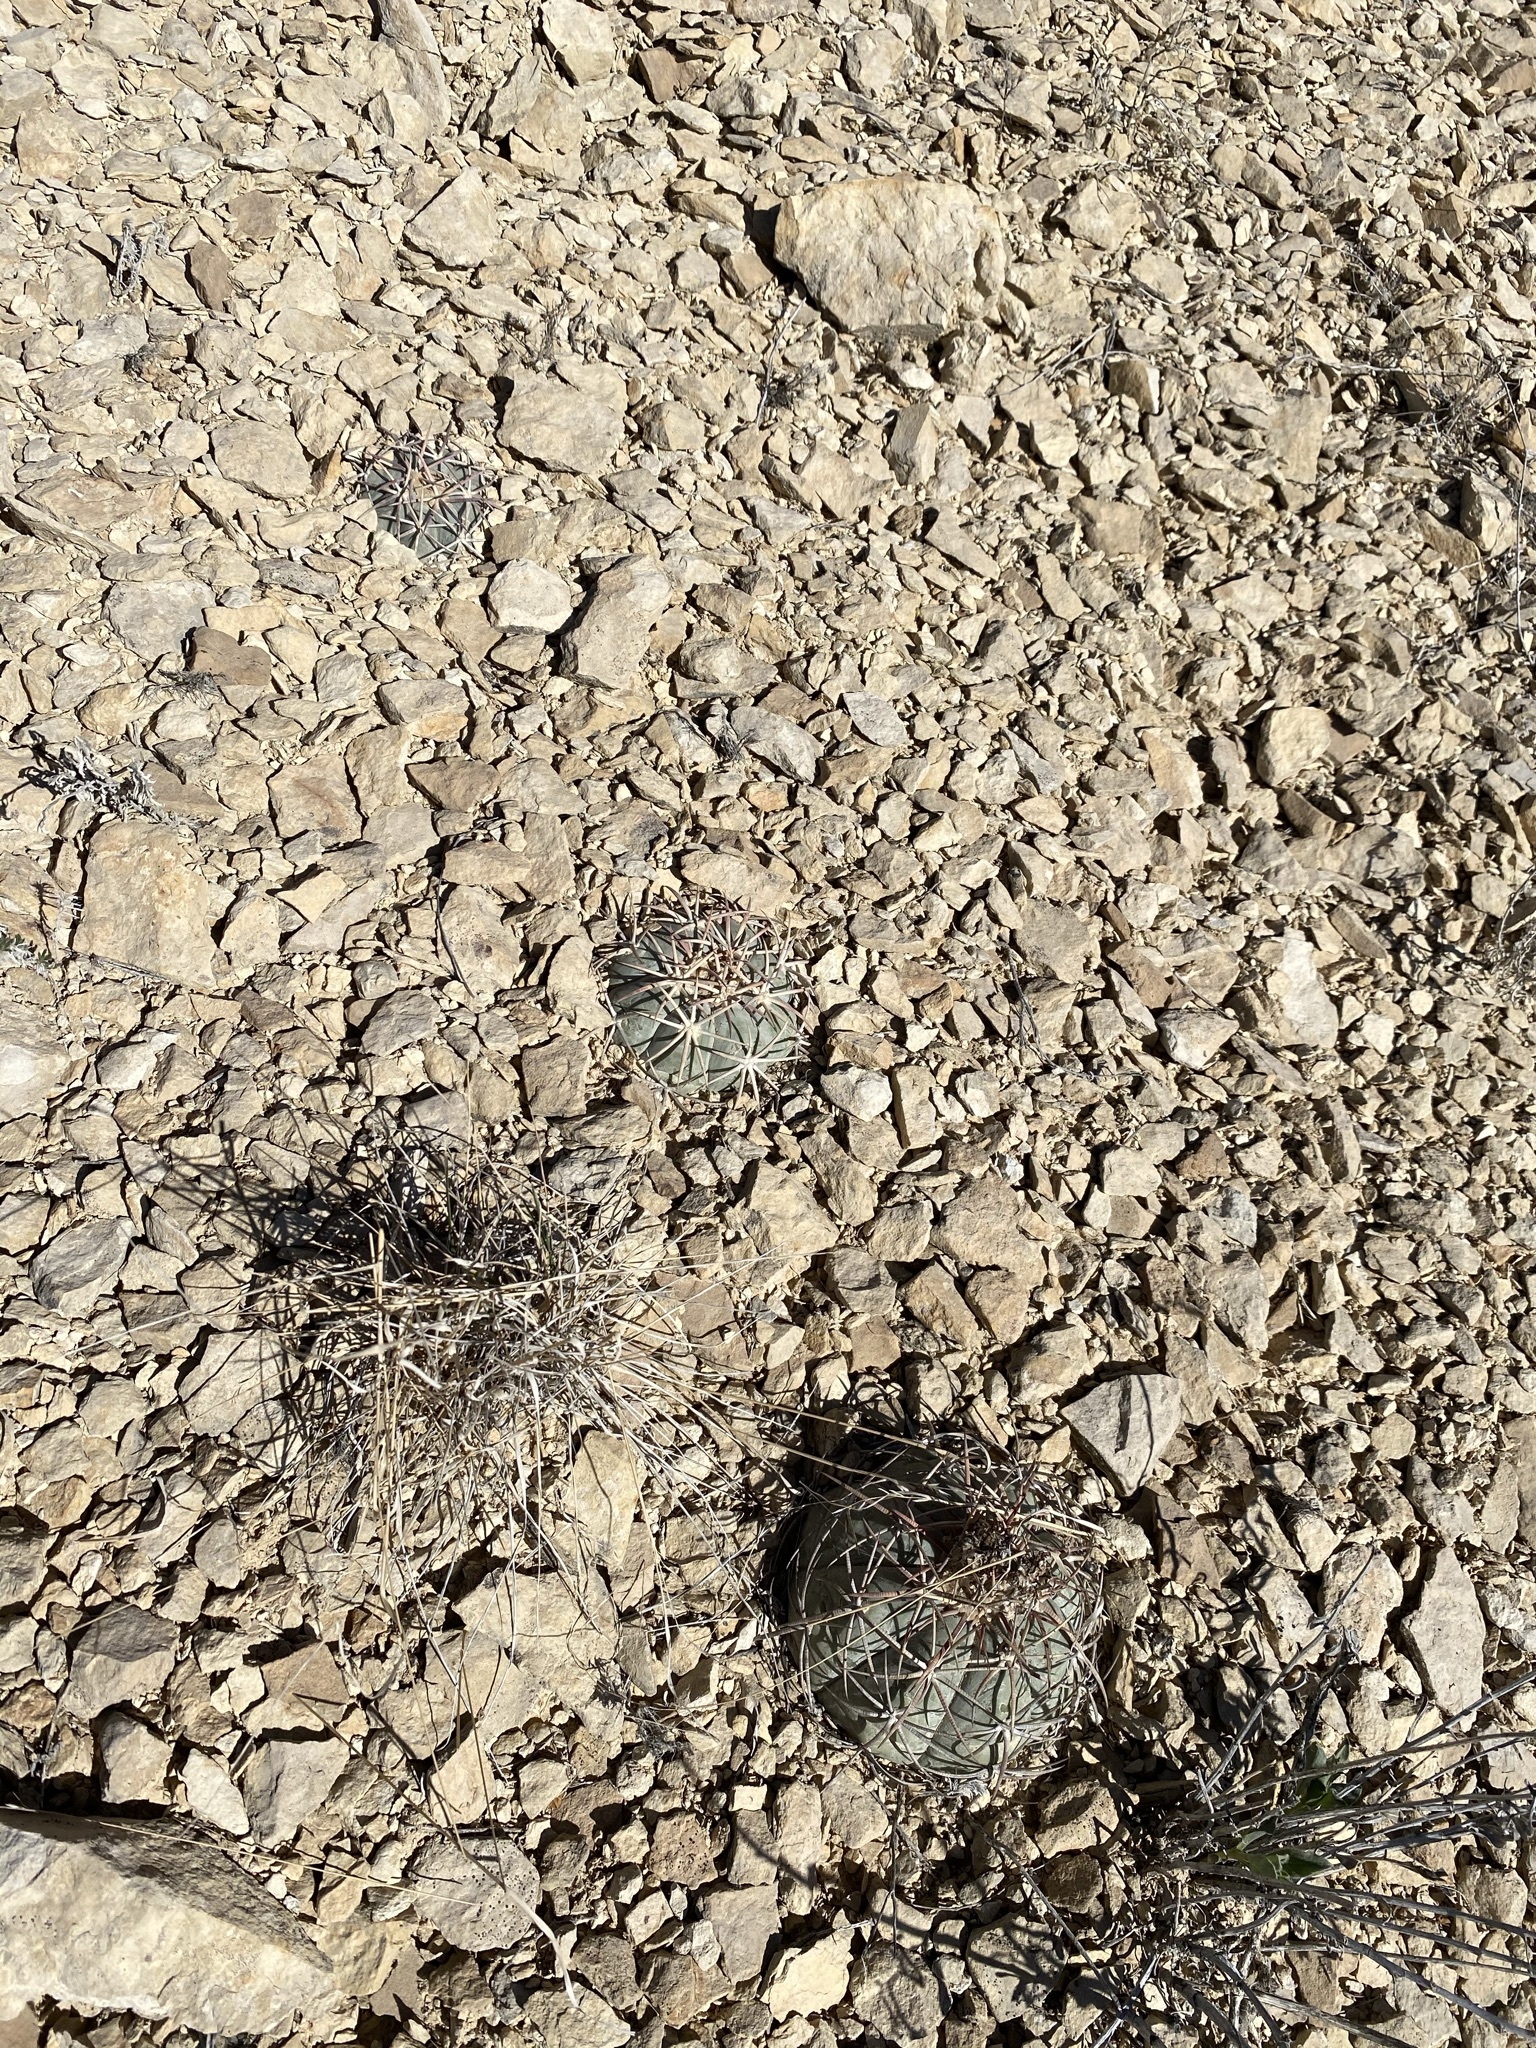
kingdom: Plantae
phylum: Tracheophyta
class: Magnoliopsida
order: Caryophyllales
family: Cactaceae
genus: Echinocactus
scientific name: Echinocactus horizonthalonius
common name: Devilshead
